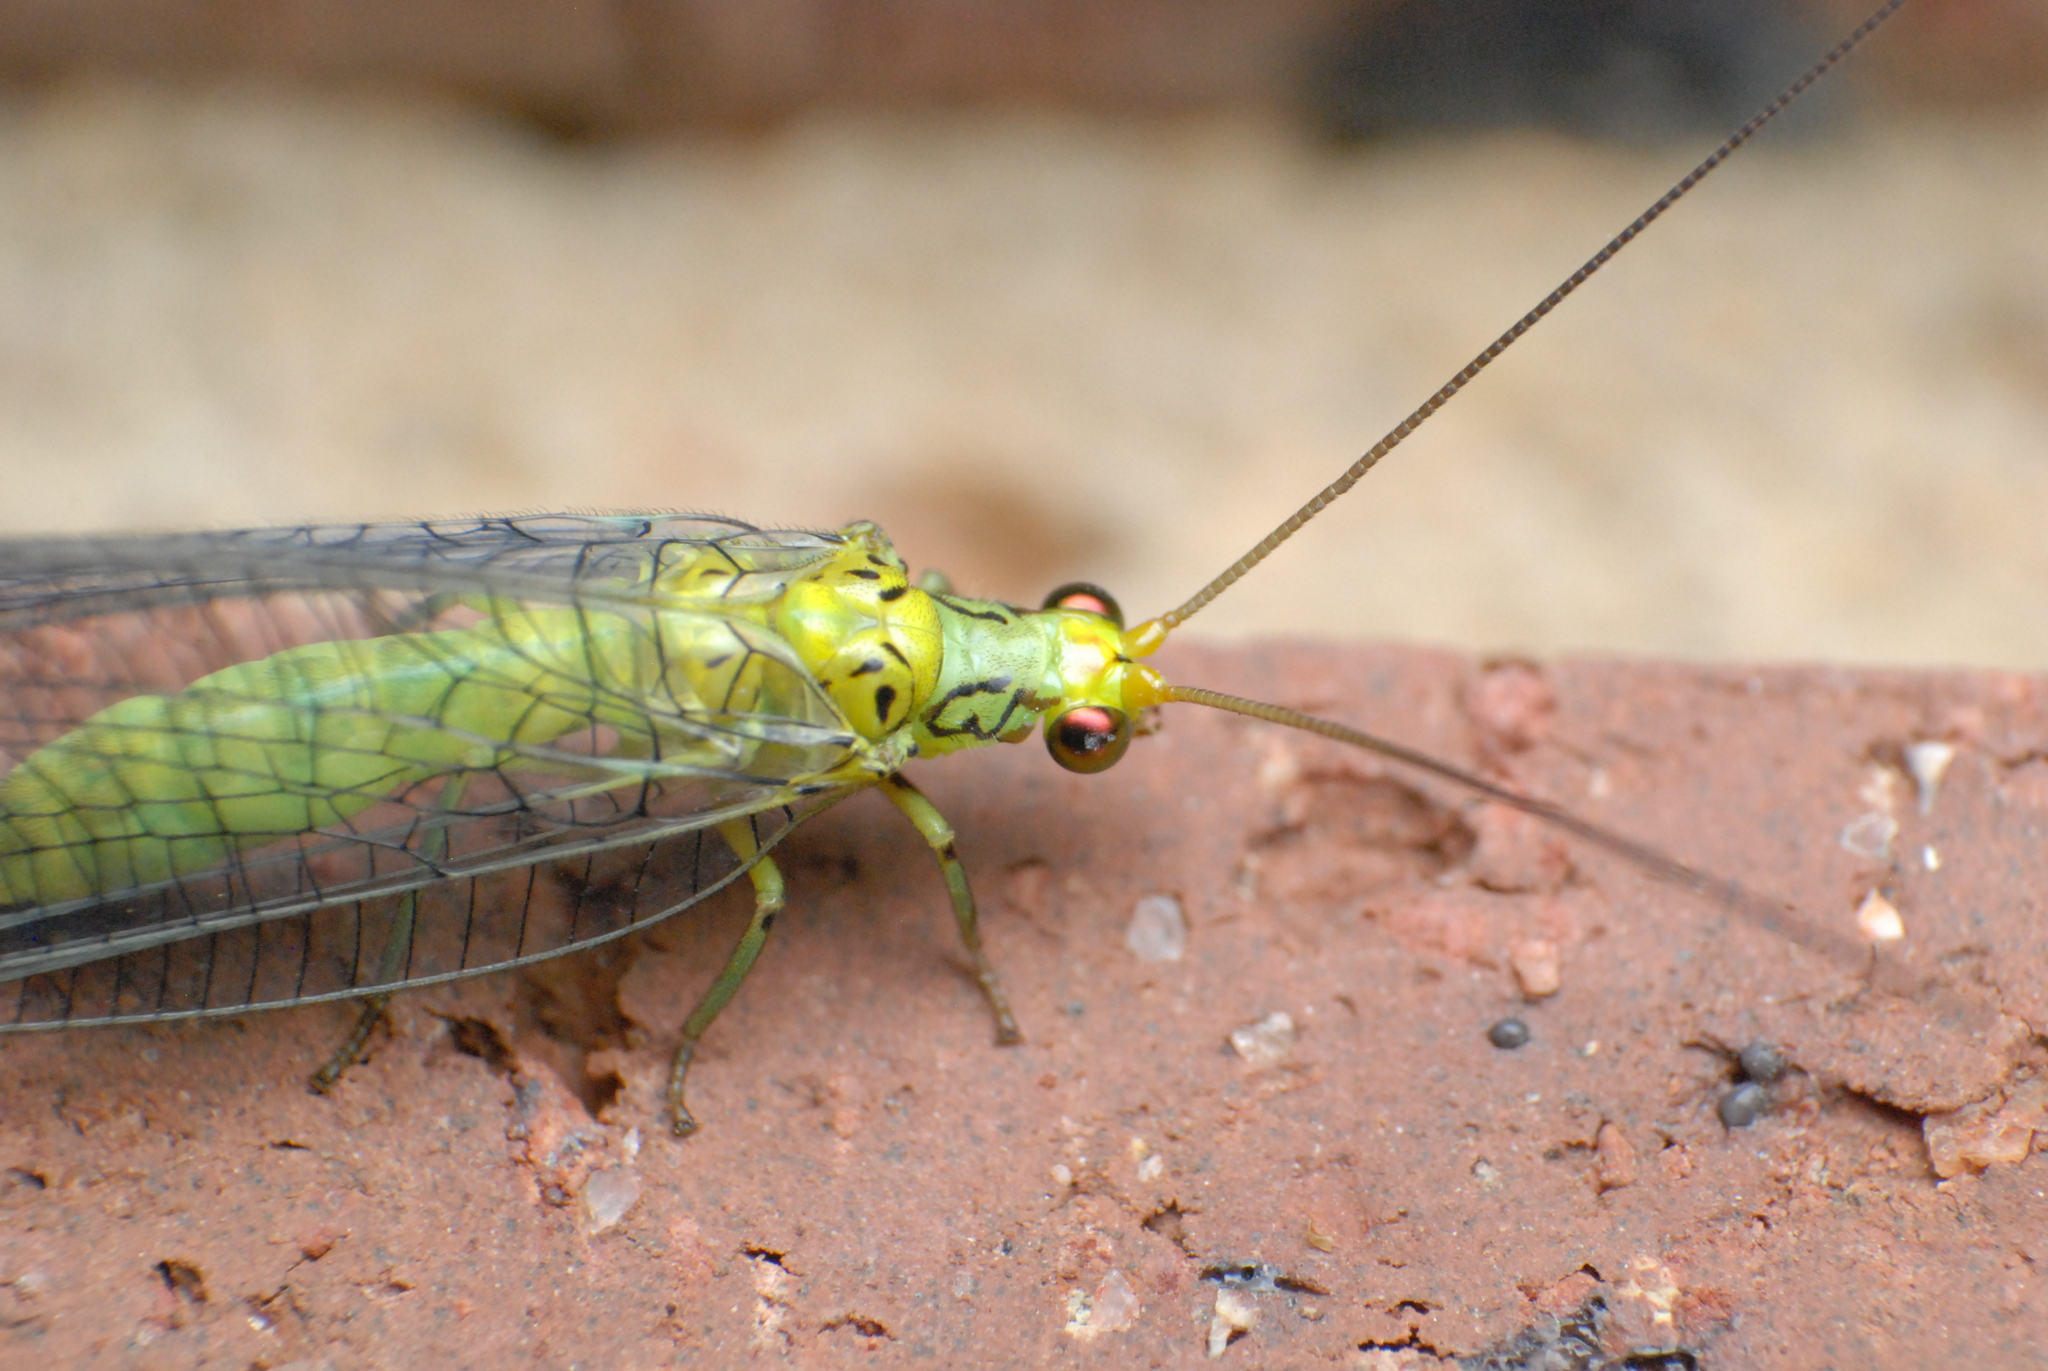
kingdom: Animalia
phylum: Arthropoda
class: Insecta
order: Neuroptera
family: Chrysopidae
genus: Calochrysa
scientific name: Calochrysa extranea
